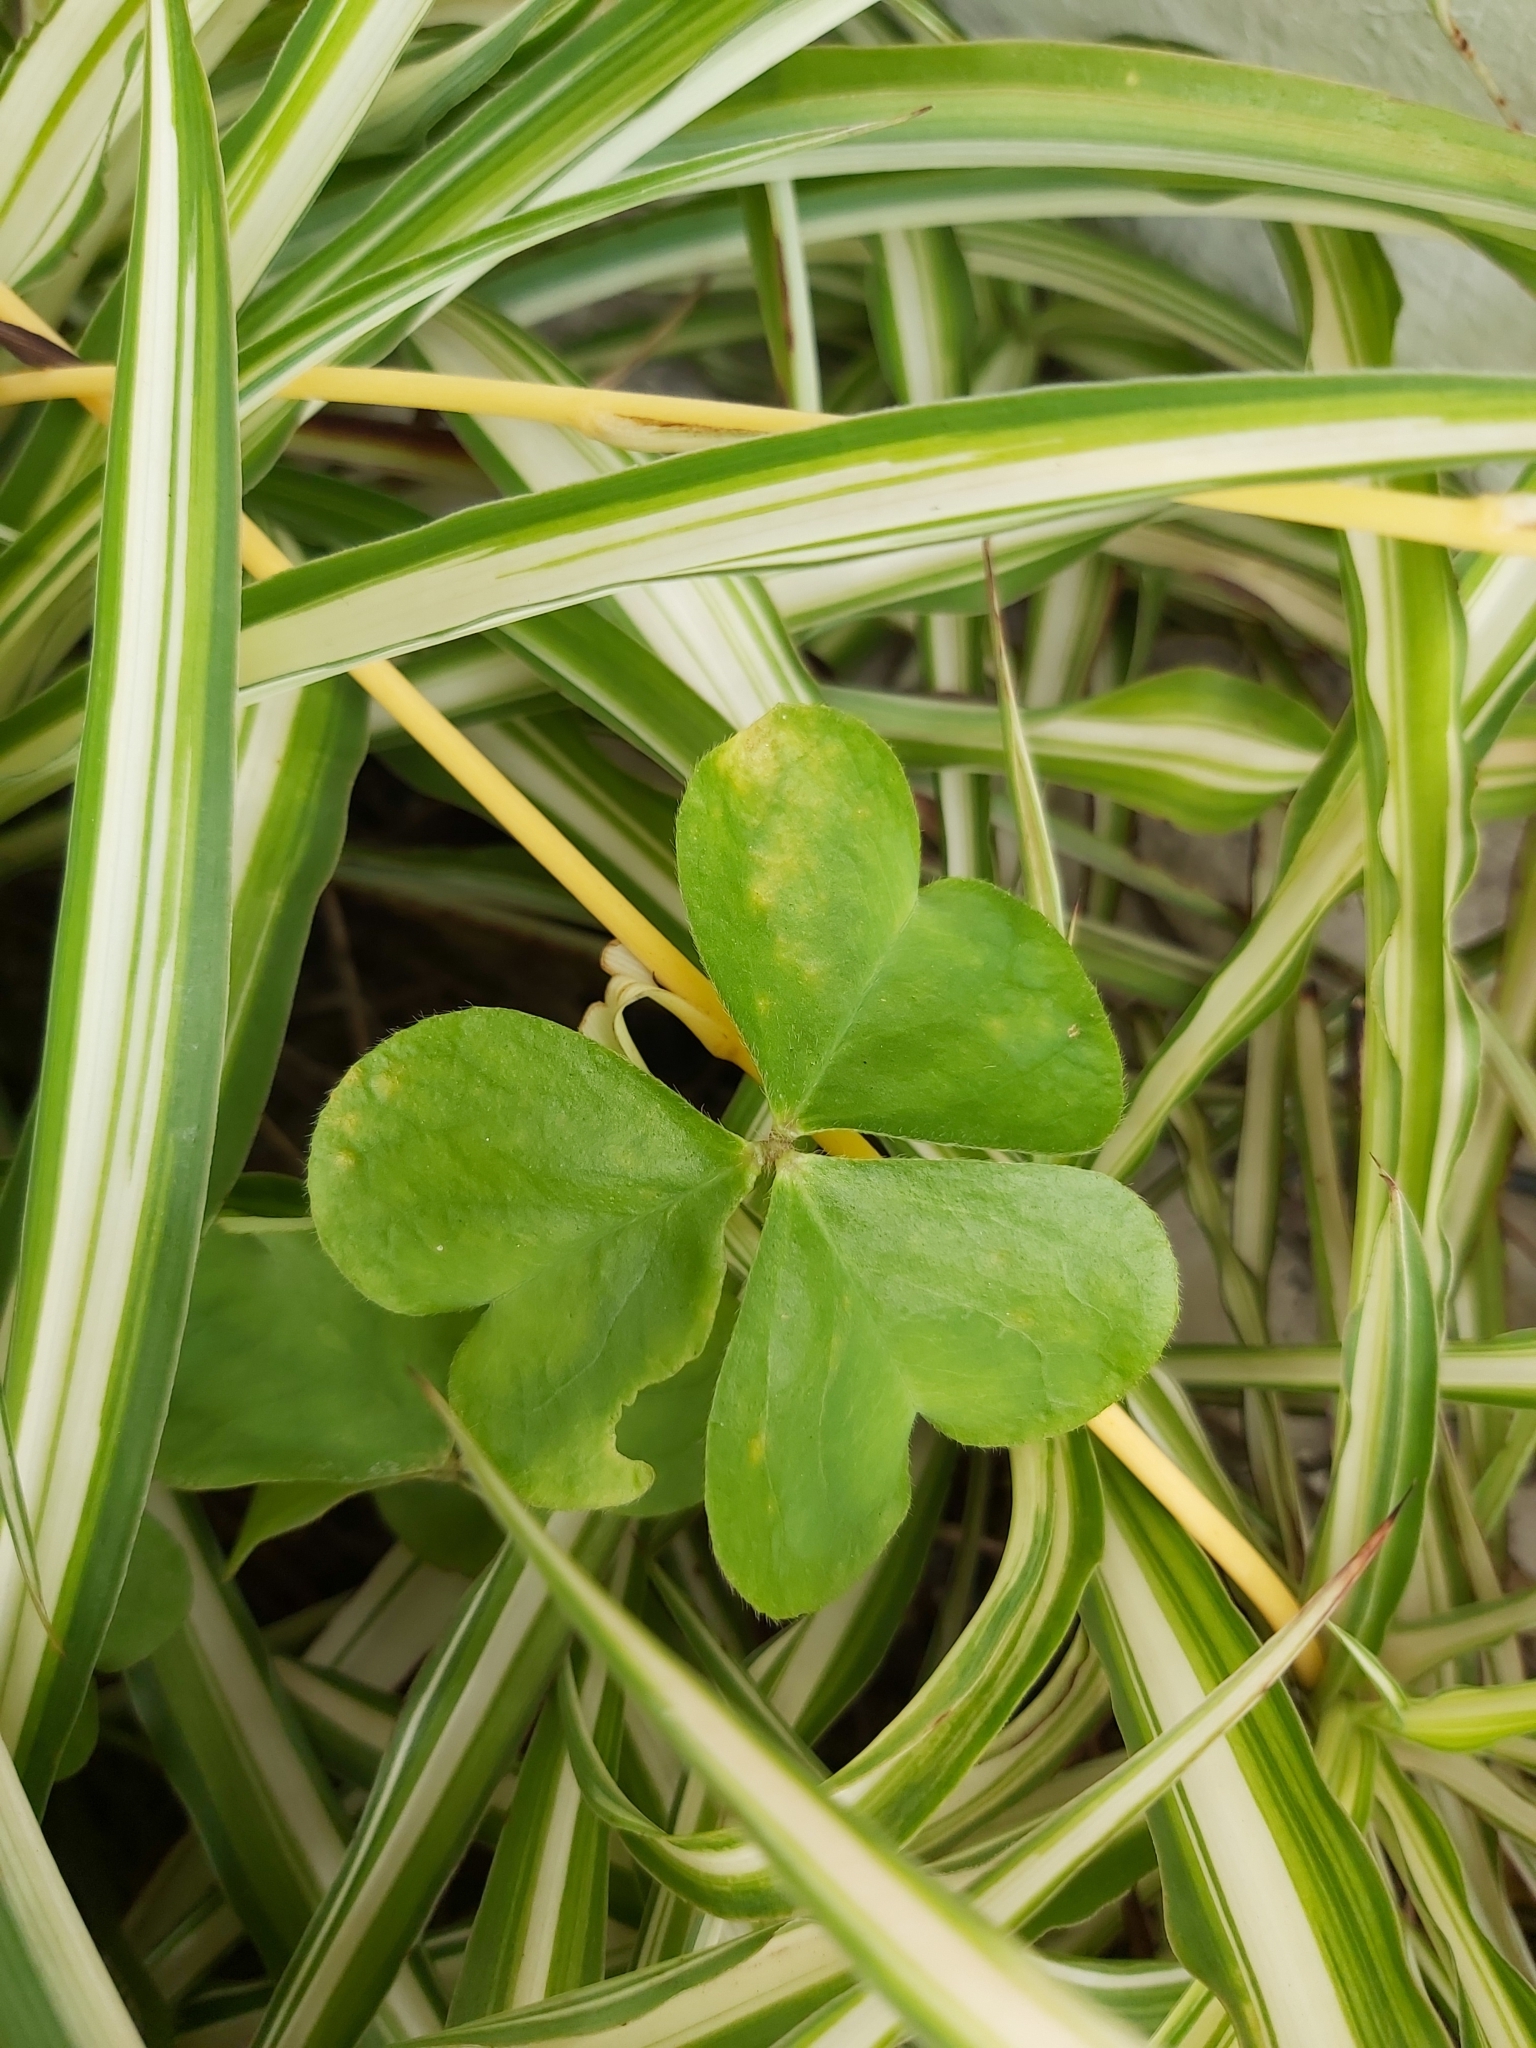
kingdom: Plantae
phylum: Tracheophyta
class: Magnoliopsida
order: Oxalidales
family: Oxalidaceae
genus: Oxalis
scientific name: Oxalis debilis
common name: Large-flowered pink-sorrel
